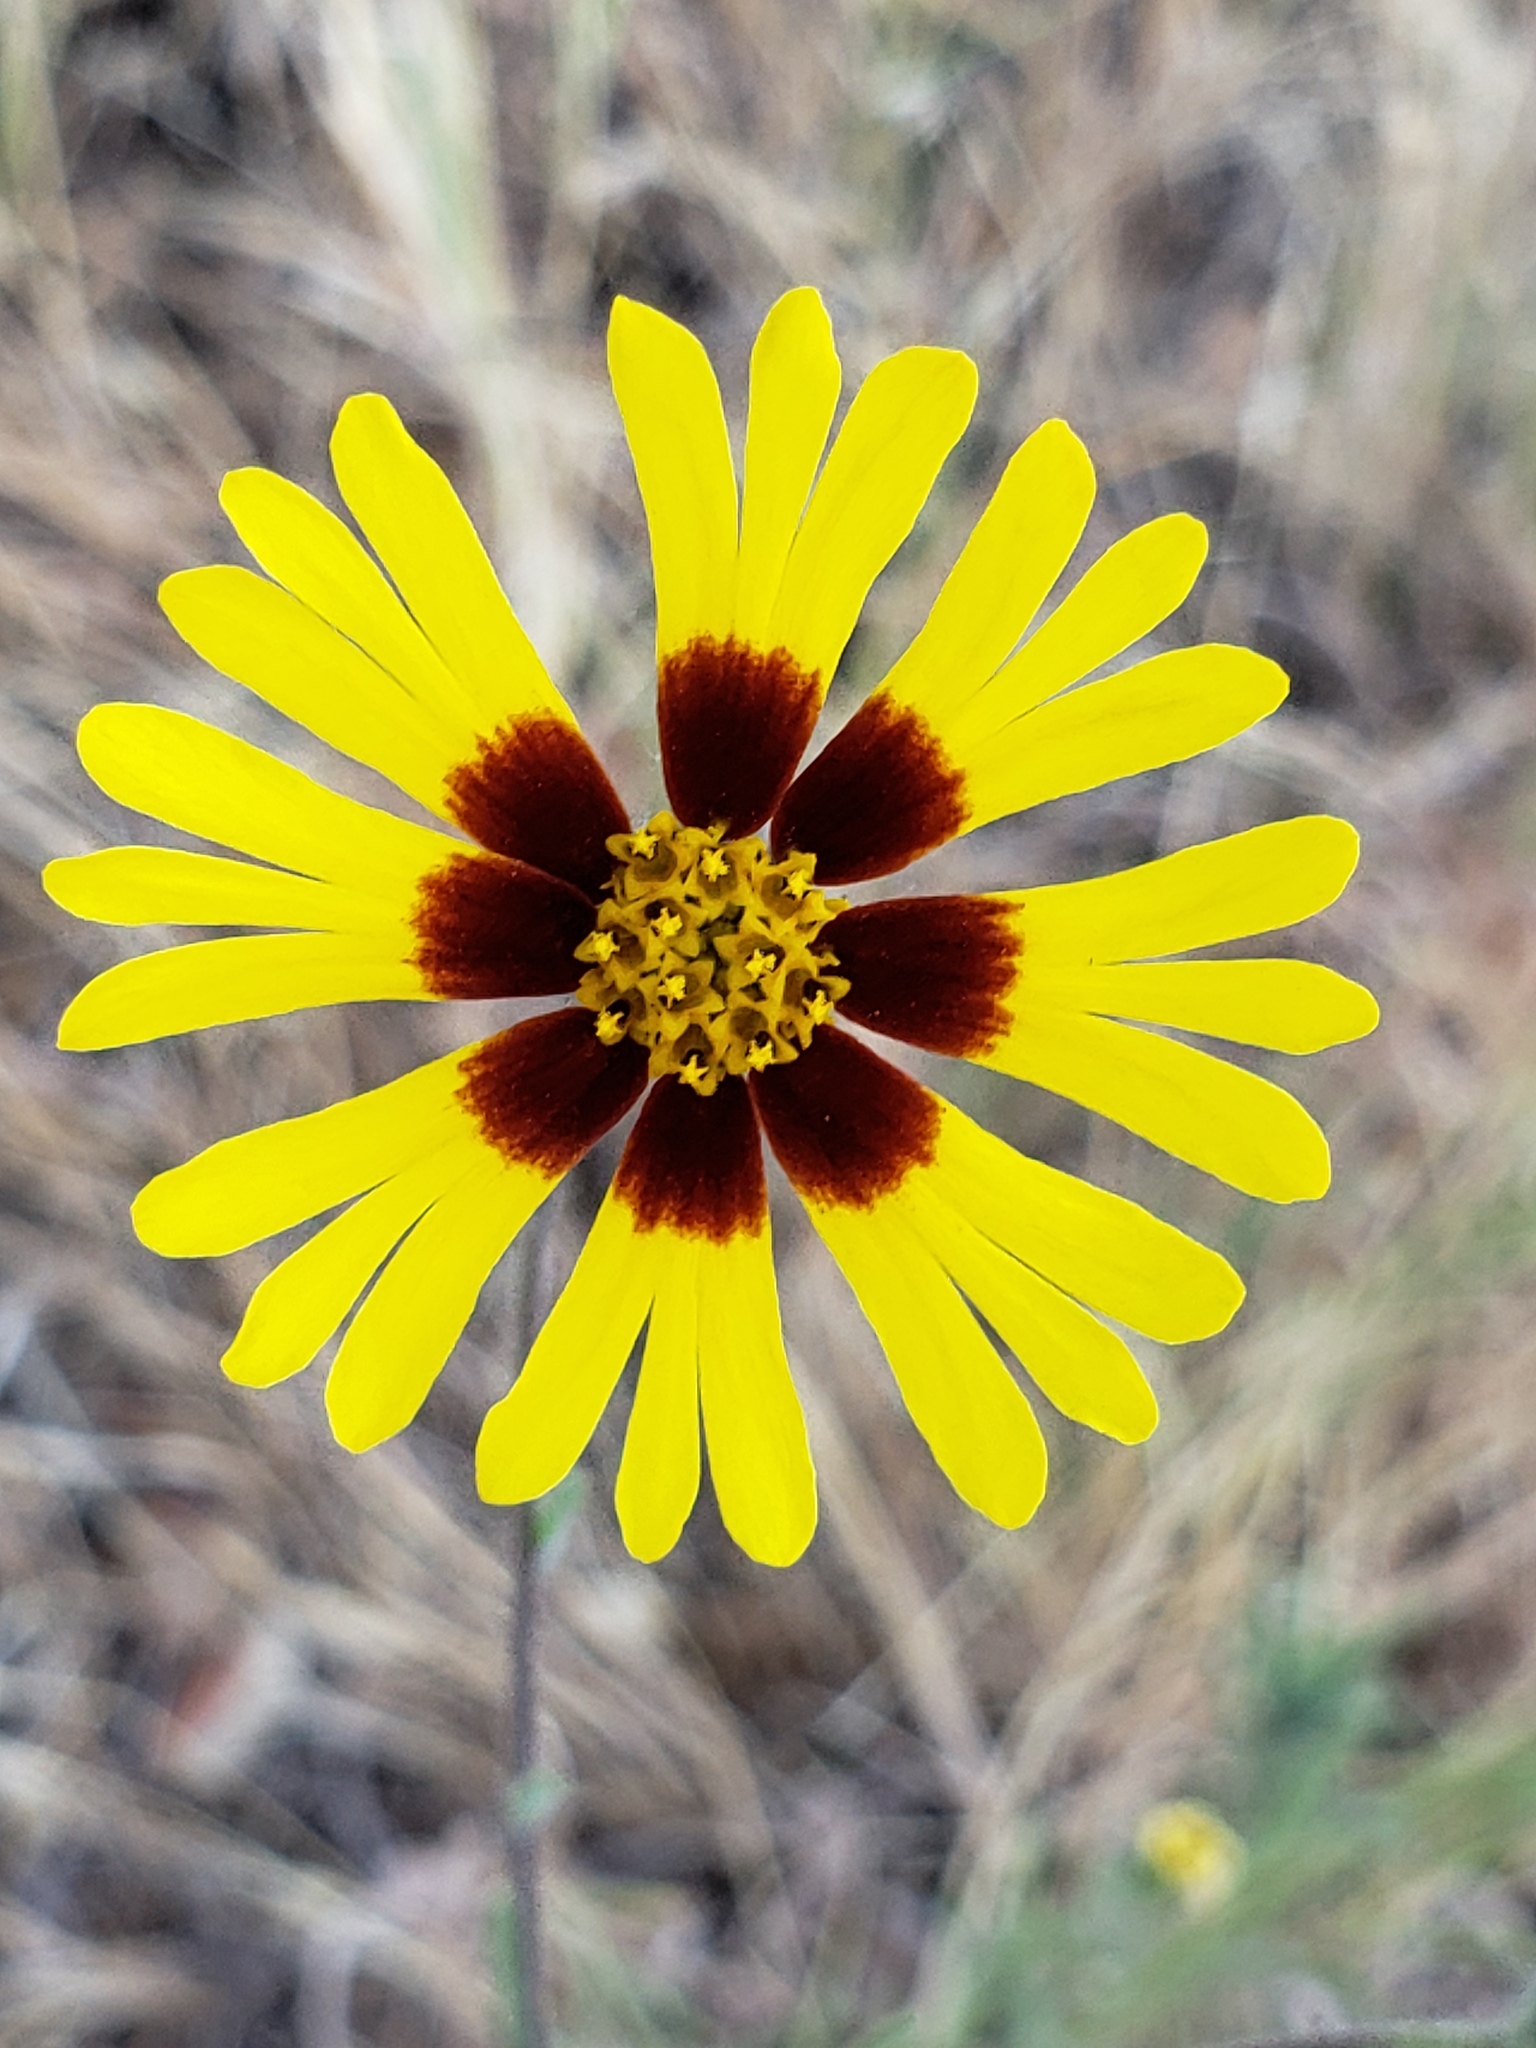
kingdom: Plantae
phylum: Tracheophyta
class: Magnoliopsida
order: Asterales
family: Asteraceae
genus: Madia
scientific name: Madia elegans
